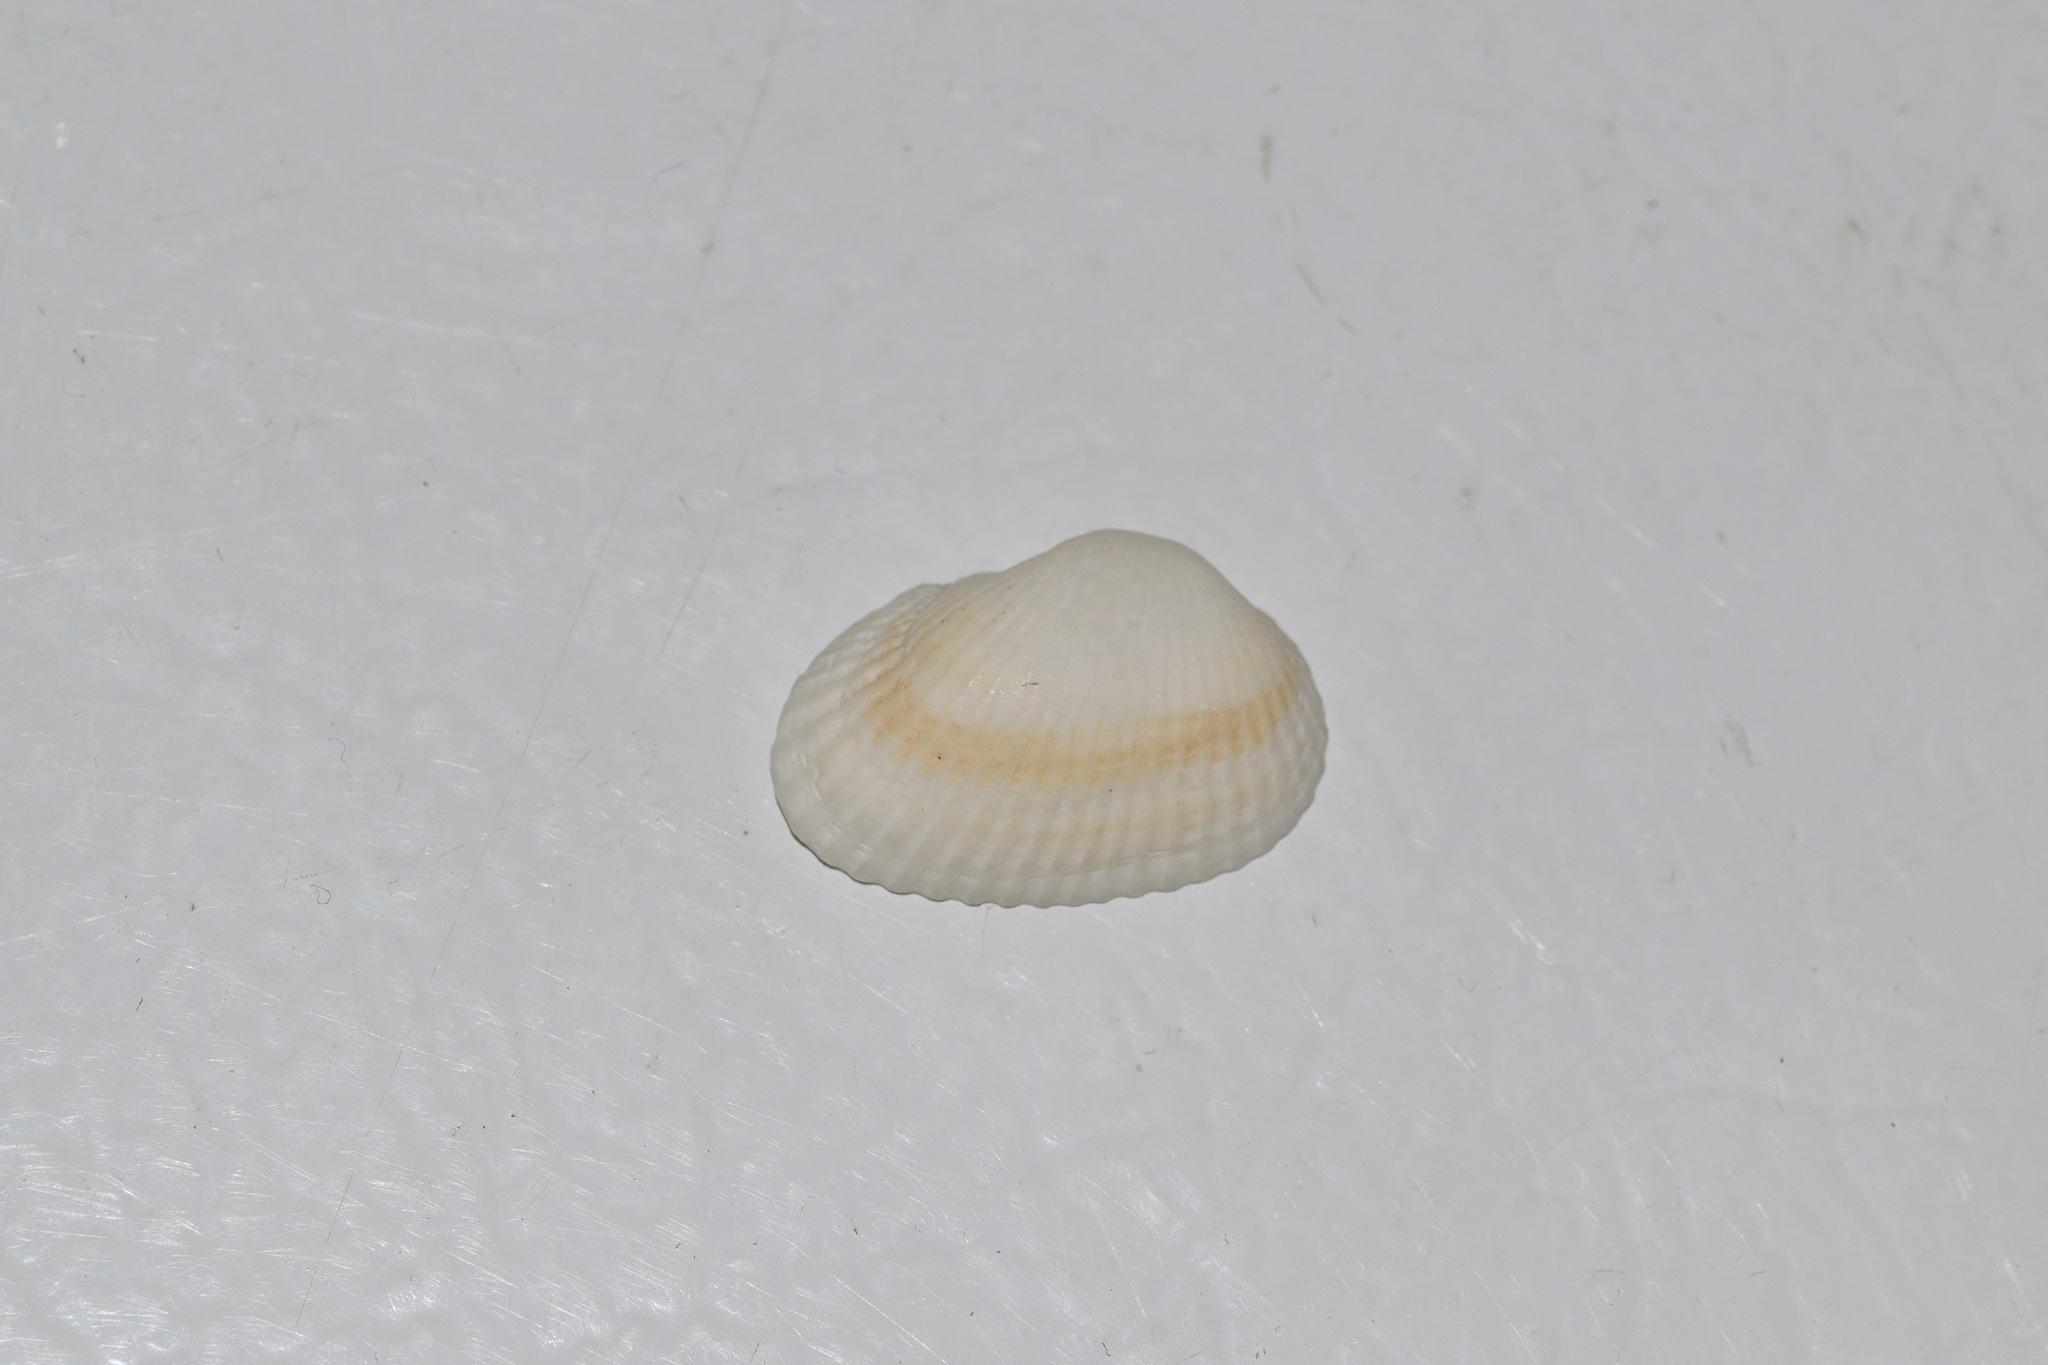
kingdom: Animalia
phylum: Mollusca
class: Bivalvia
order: Arcida
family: Arcidae
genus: Anadara
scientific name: Anadara transversa
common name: Transverse ark
